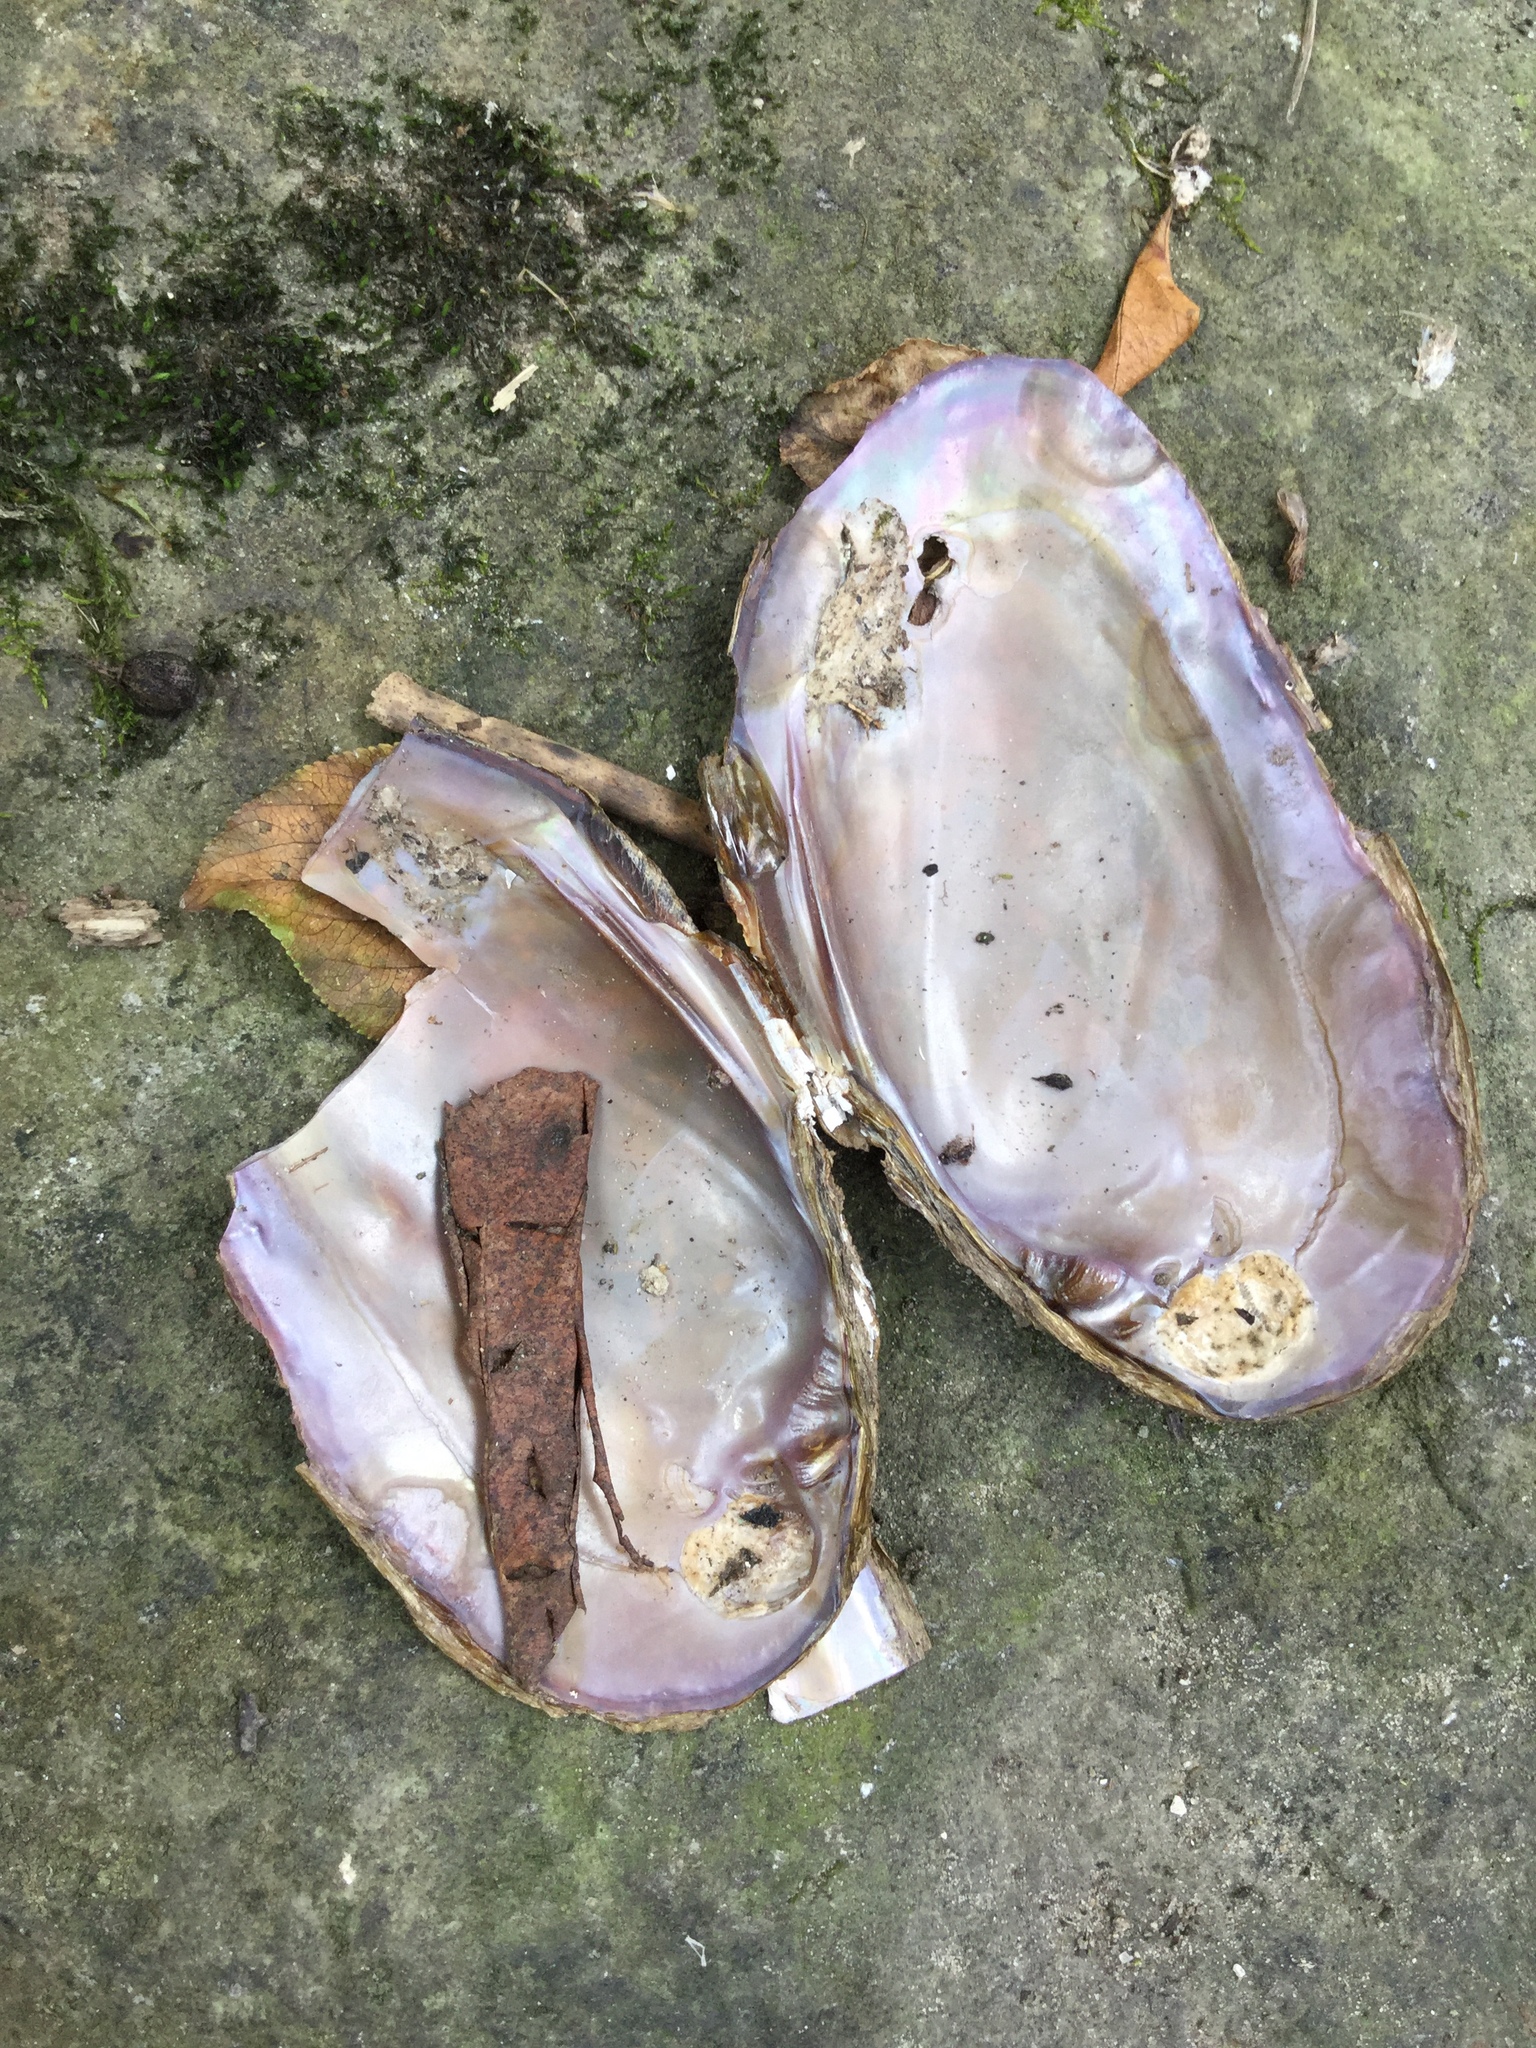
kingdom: Animalia
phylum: Mollusca
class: Bivalvia
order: Unionida
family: Unionidae
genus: Elliptio
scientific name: Elliptio complanata
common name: Eastern elliptio
